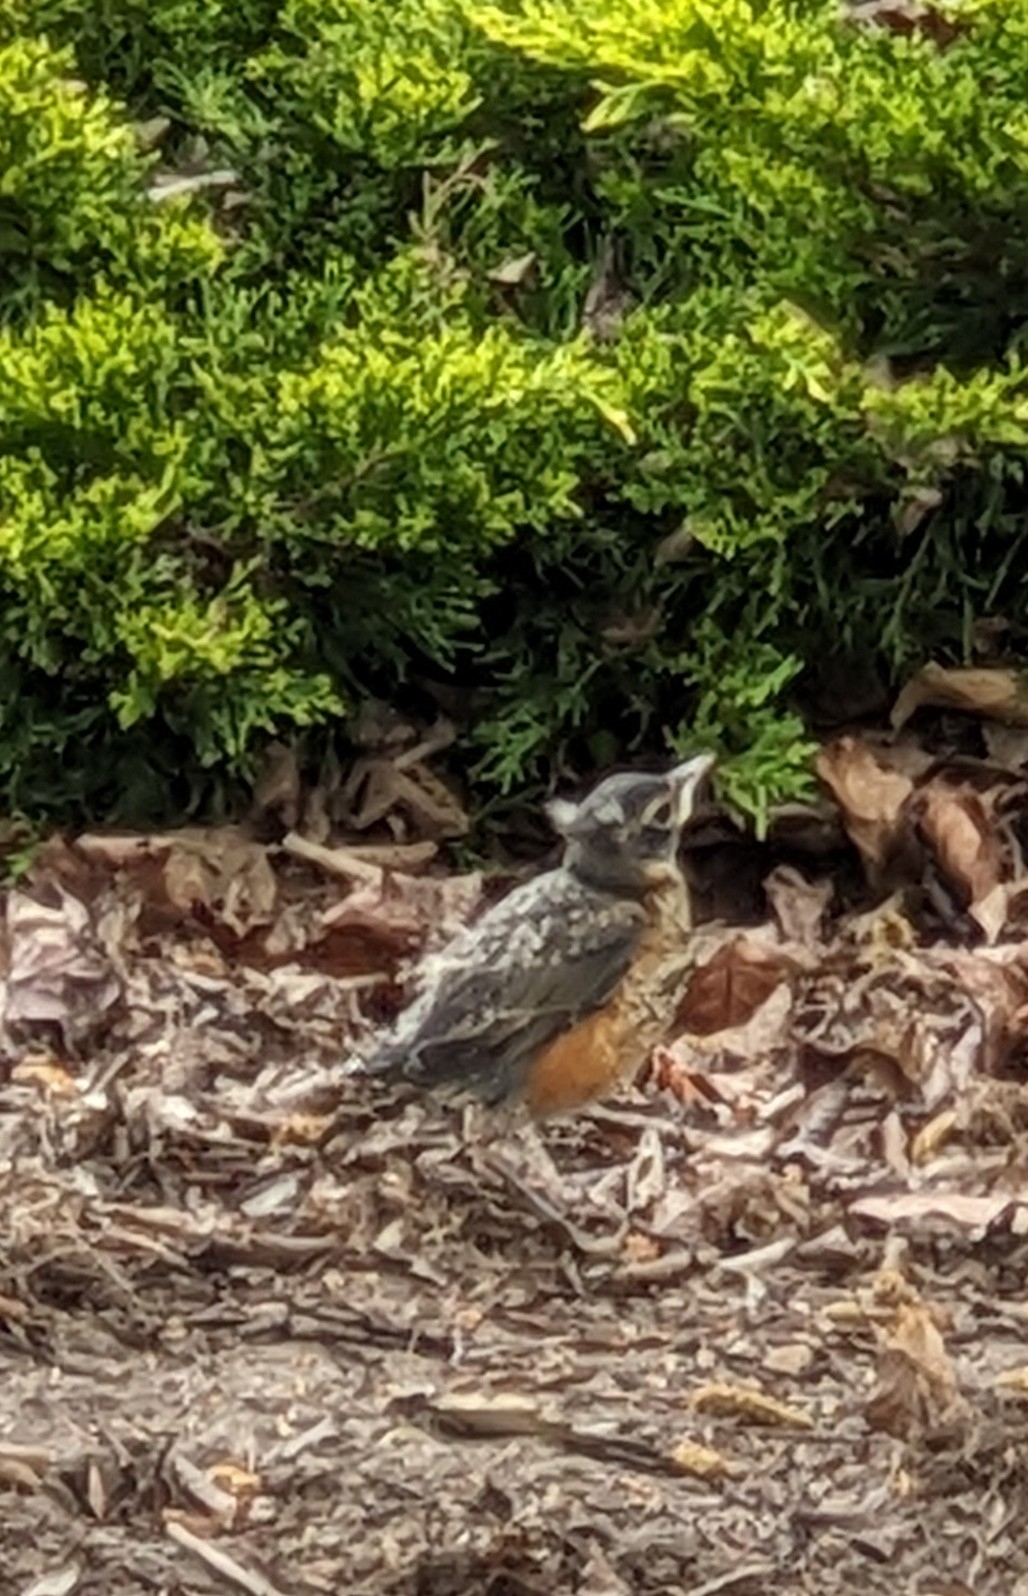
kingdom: Animalia
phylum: Chordata
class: Aves
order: Passeriformes
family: Turdidae
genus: Turdus
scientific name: Turdus migratorius
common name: American robin
